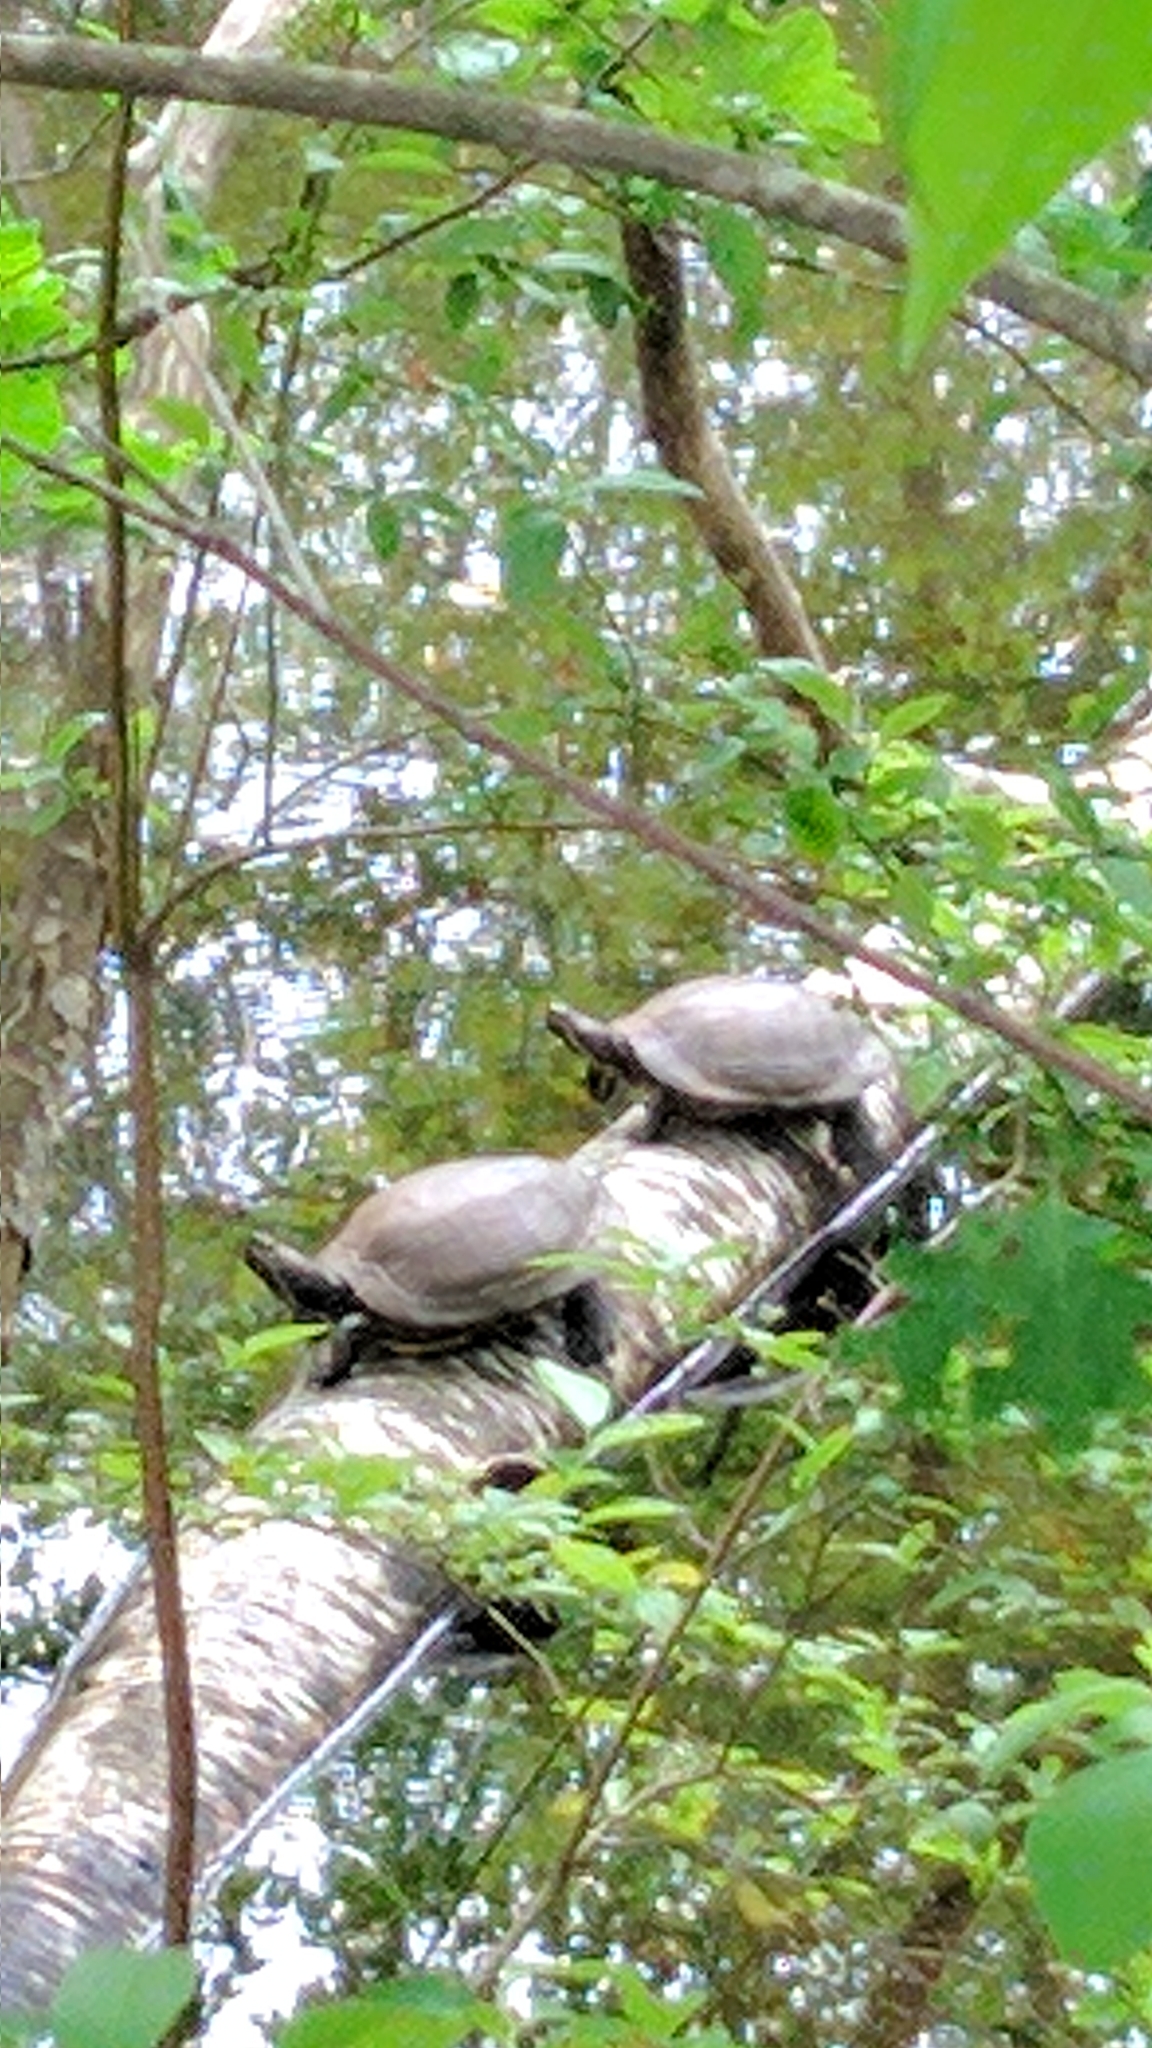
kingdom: Animalia
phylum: Chordata
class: Testudines
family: Emydidae
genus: Trachemys
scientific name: Trachemys scripta
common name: Slider
